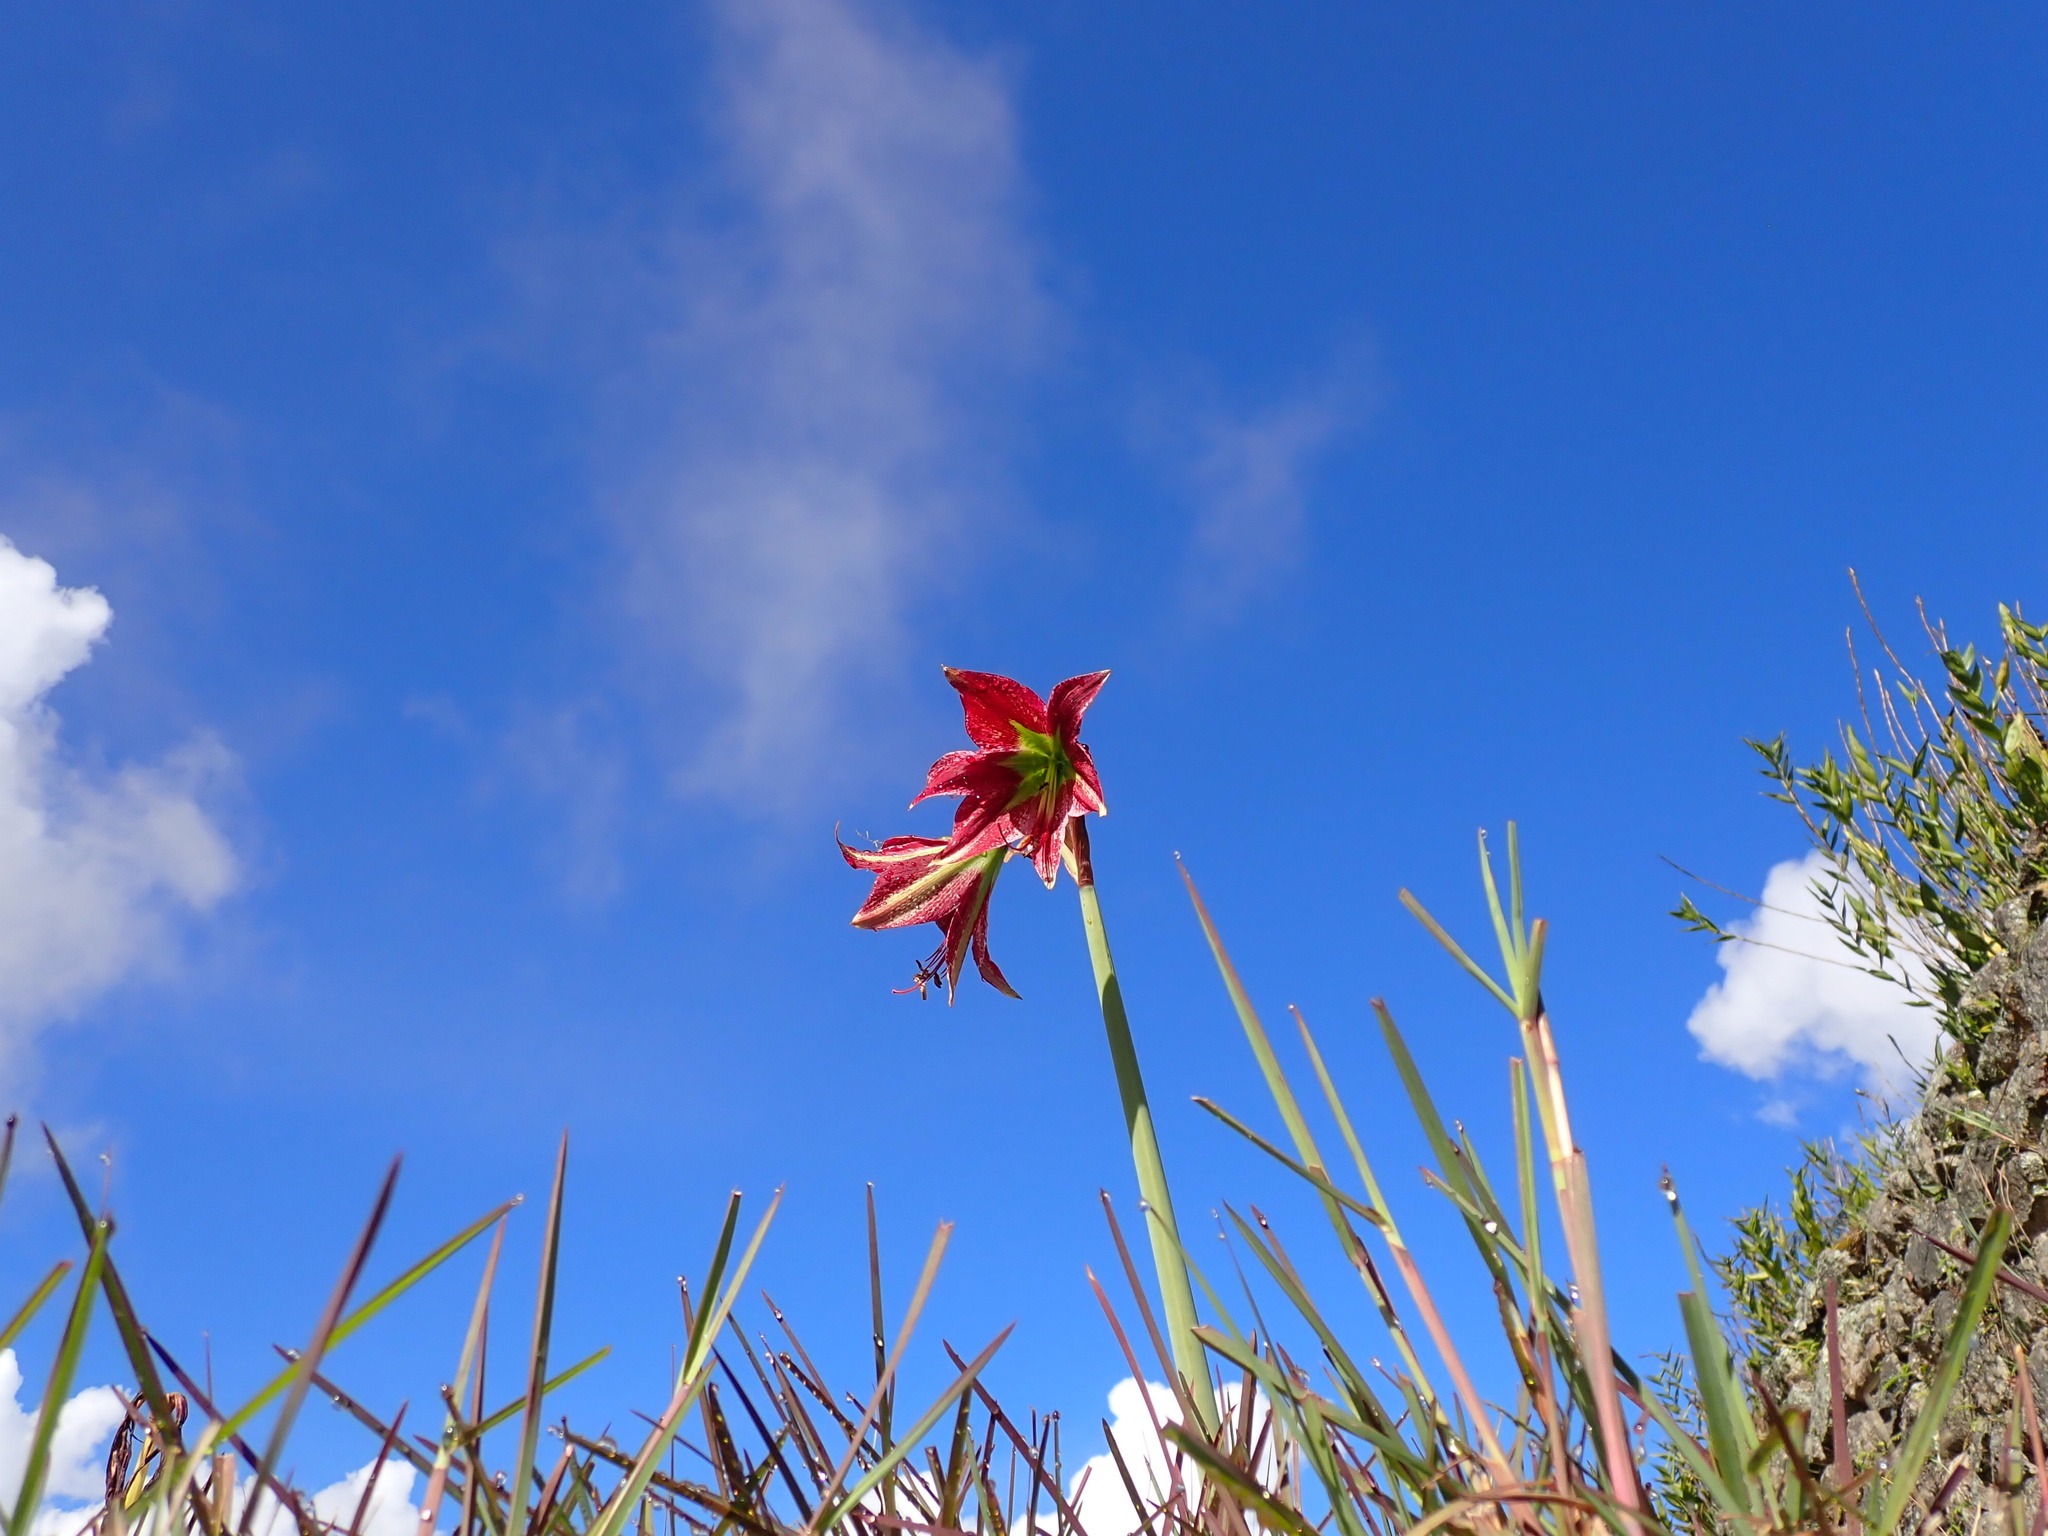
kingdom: Plantae
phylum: Tracheophyta
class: Liliopsida
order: Asparagales
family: Amaryllidaceae
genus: Hippeastrum
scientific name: Hippeastrum machupijchense
